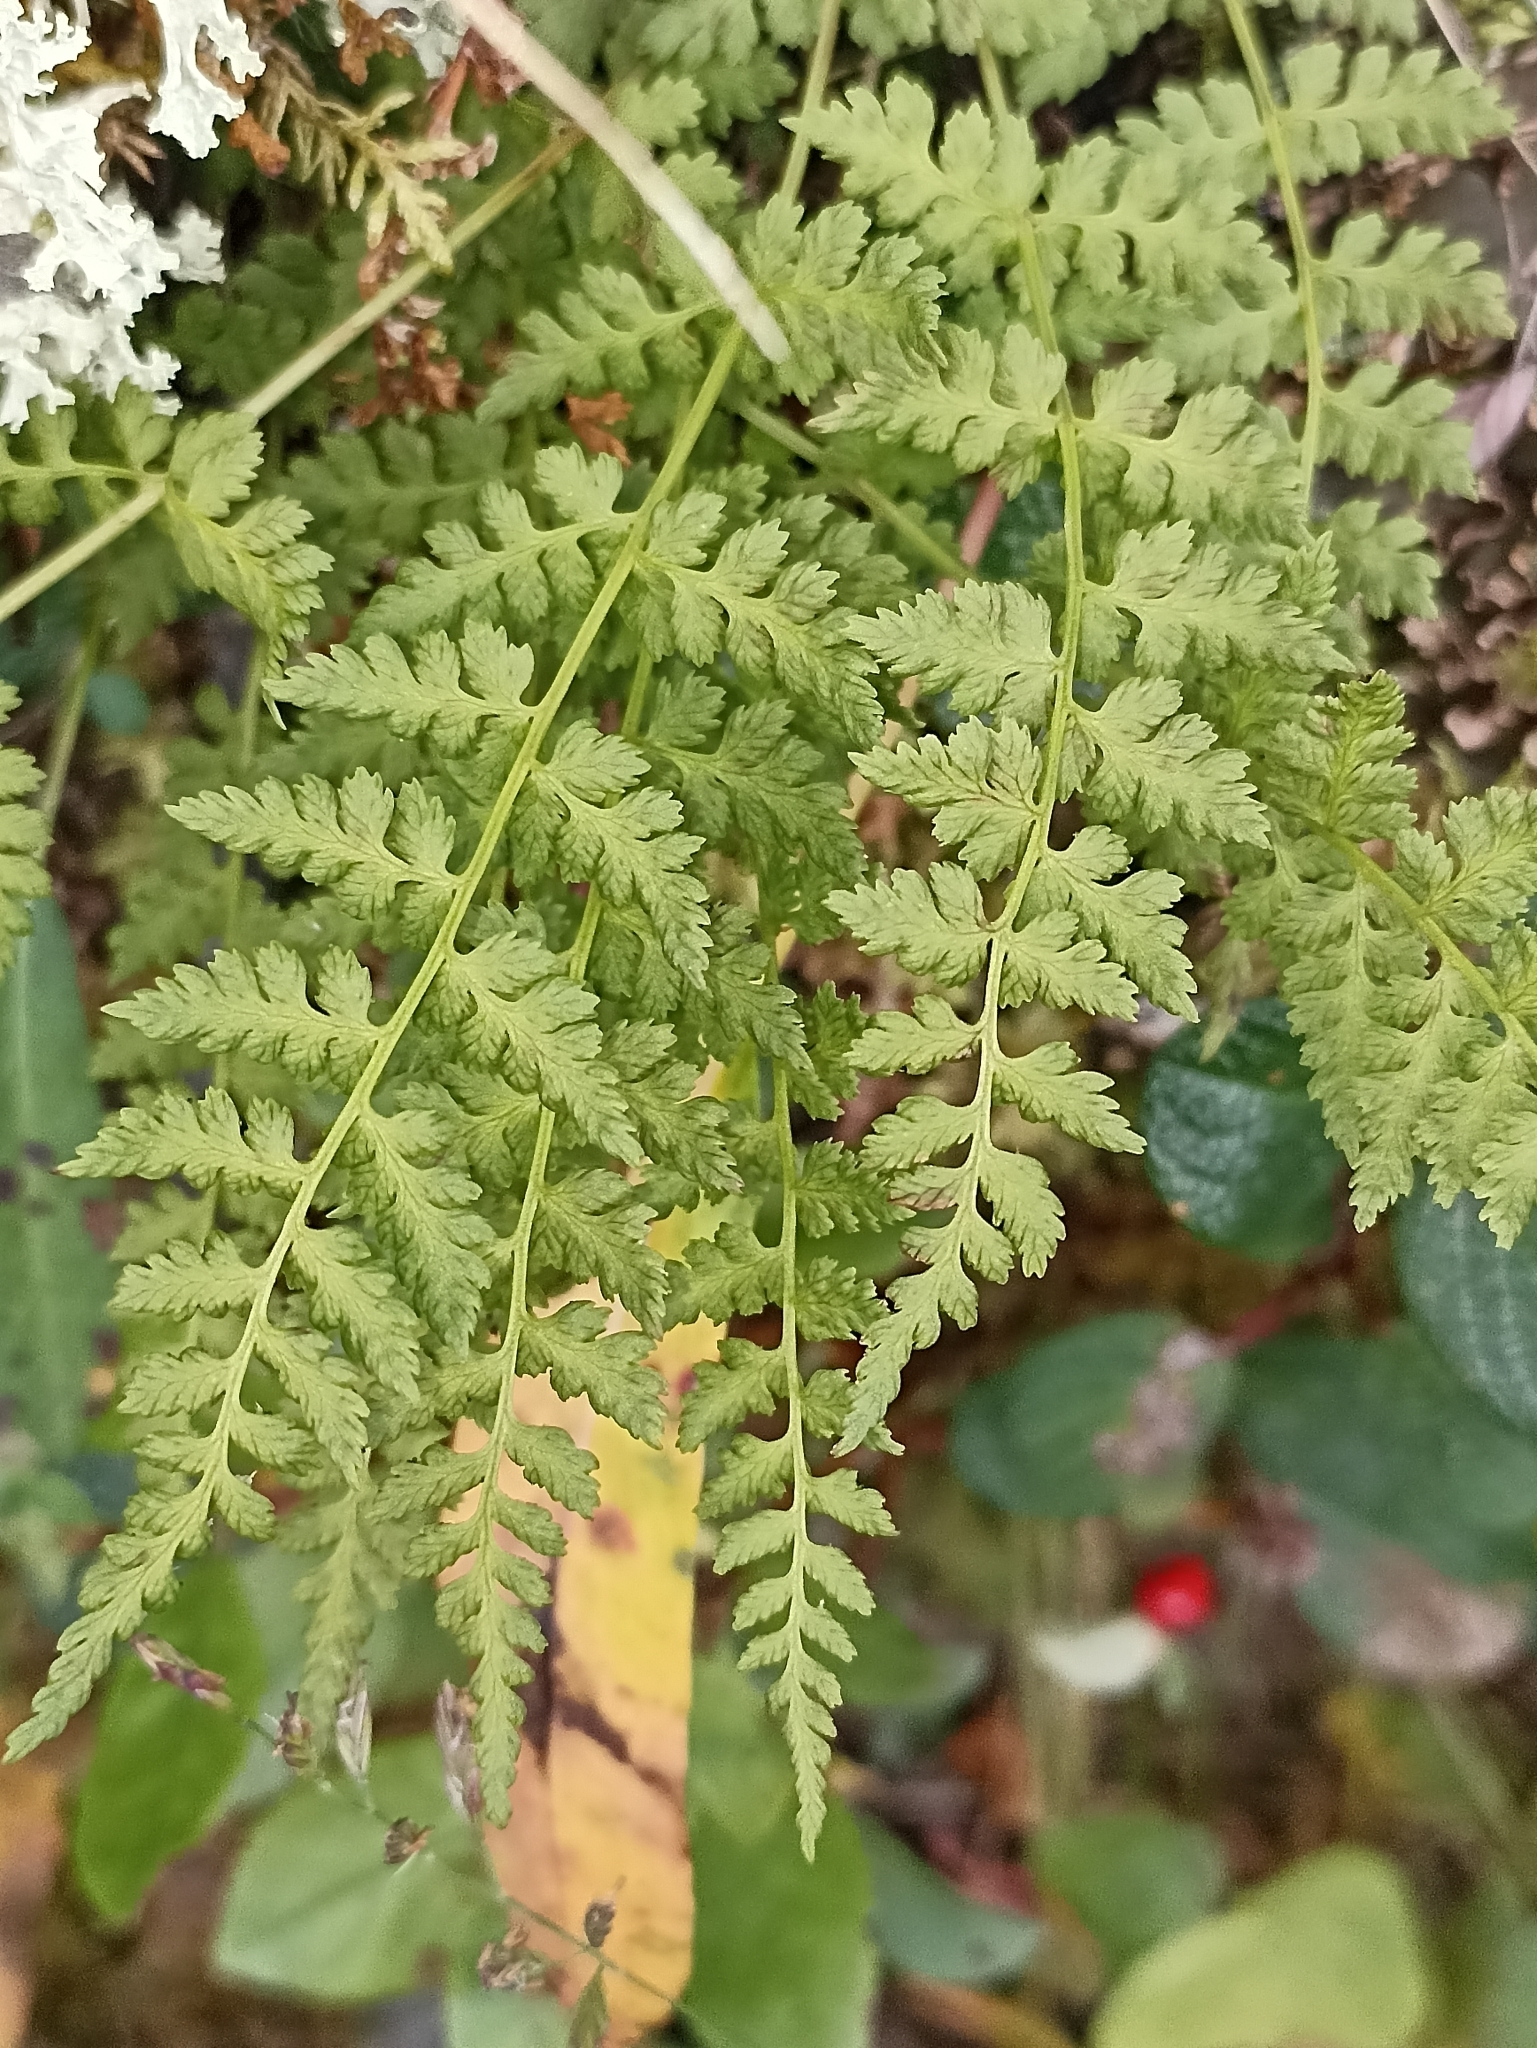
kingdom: Plantae
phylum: Tracheophyta
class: Polypodiopsida
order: Polypodiales
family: Cystopteridaceae
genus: Cystopteris
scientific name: Cystopteris fragilis
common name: Brittle bladder fern
